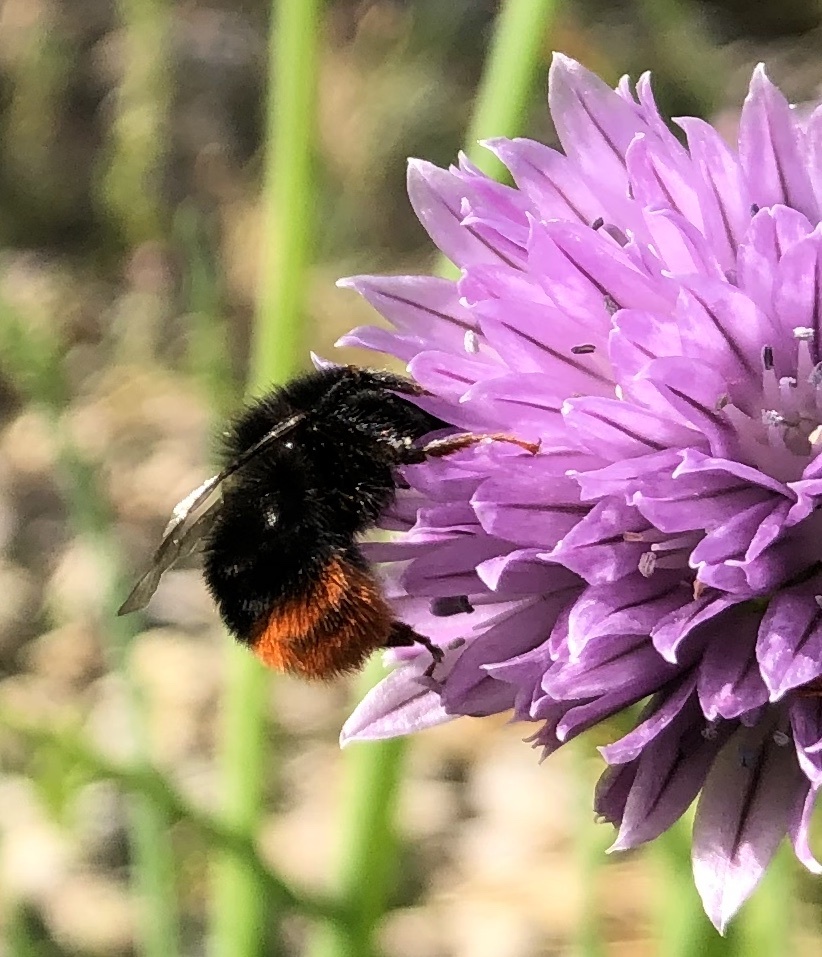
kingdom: Animalia
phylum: Arthropoda
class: Insecta
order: Hymenoptera
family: Apidae
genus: Bombus
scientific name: Bombus lapidarius
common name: Large red-tailed humble-bee
